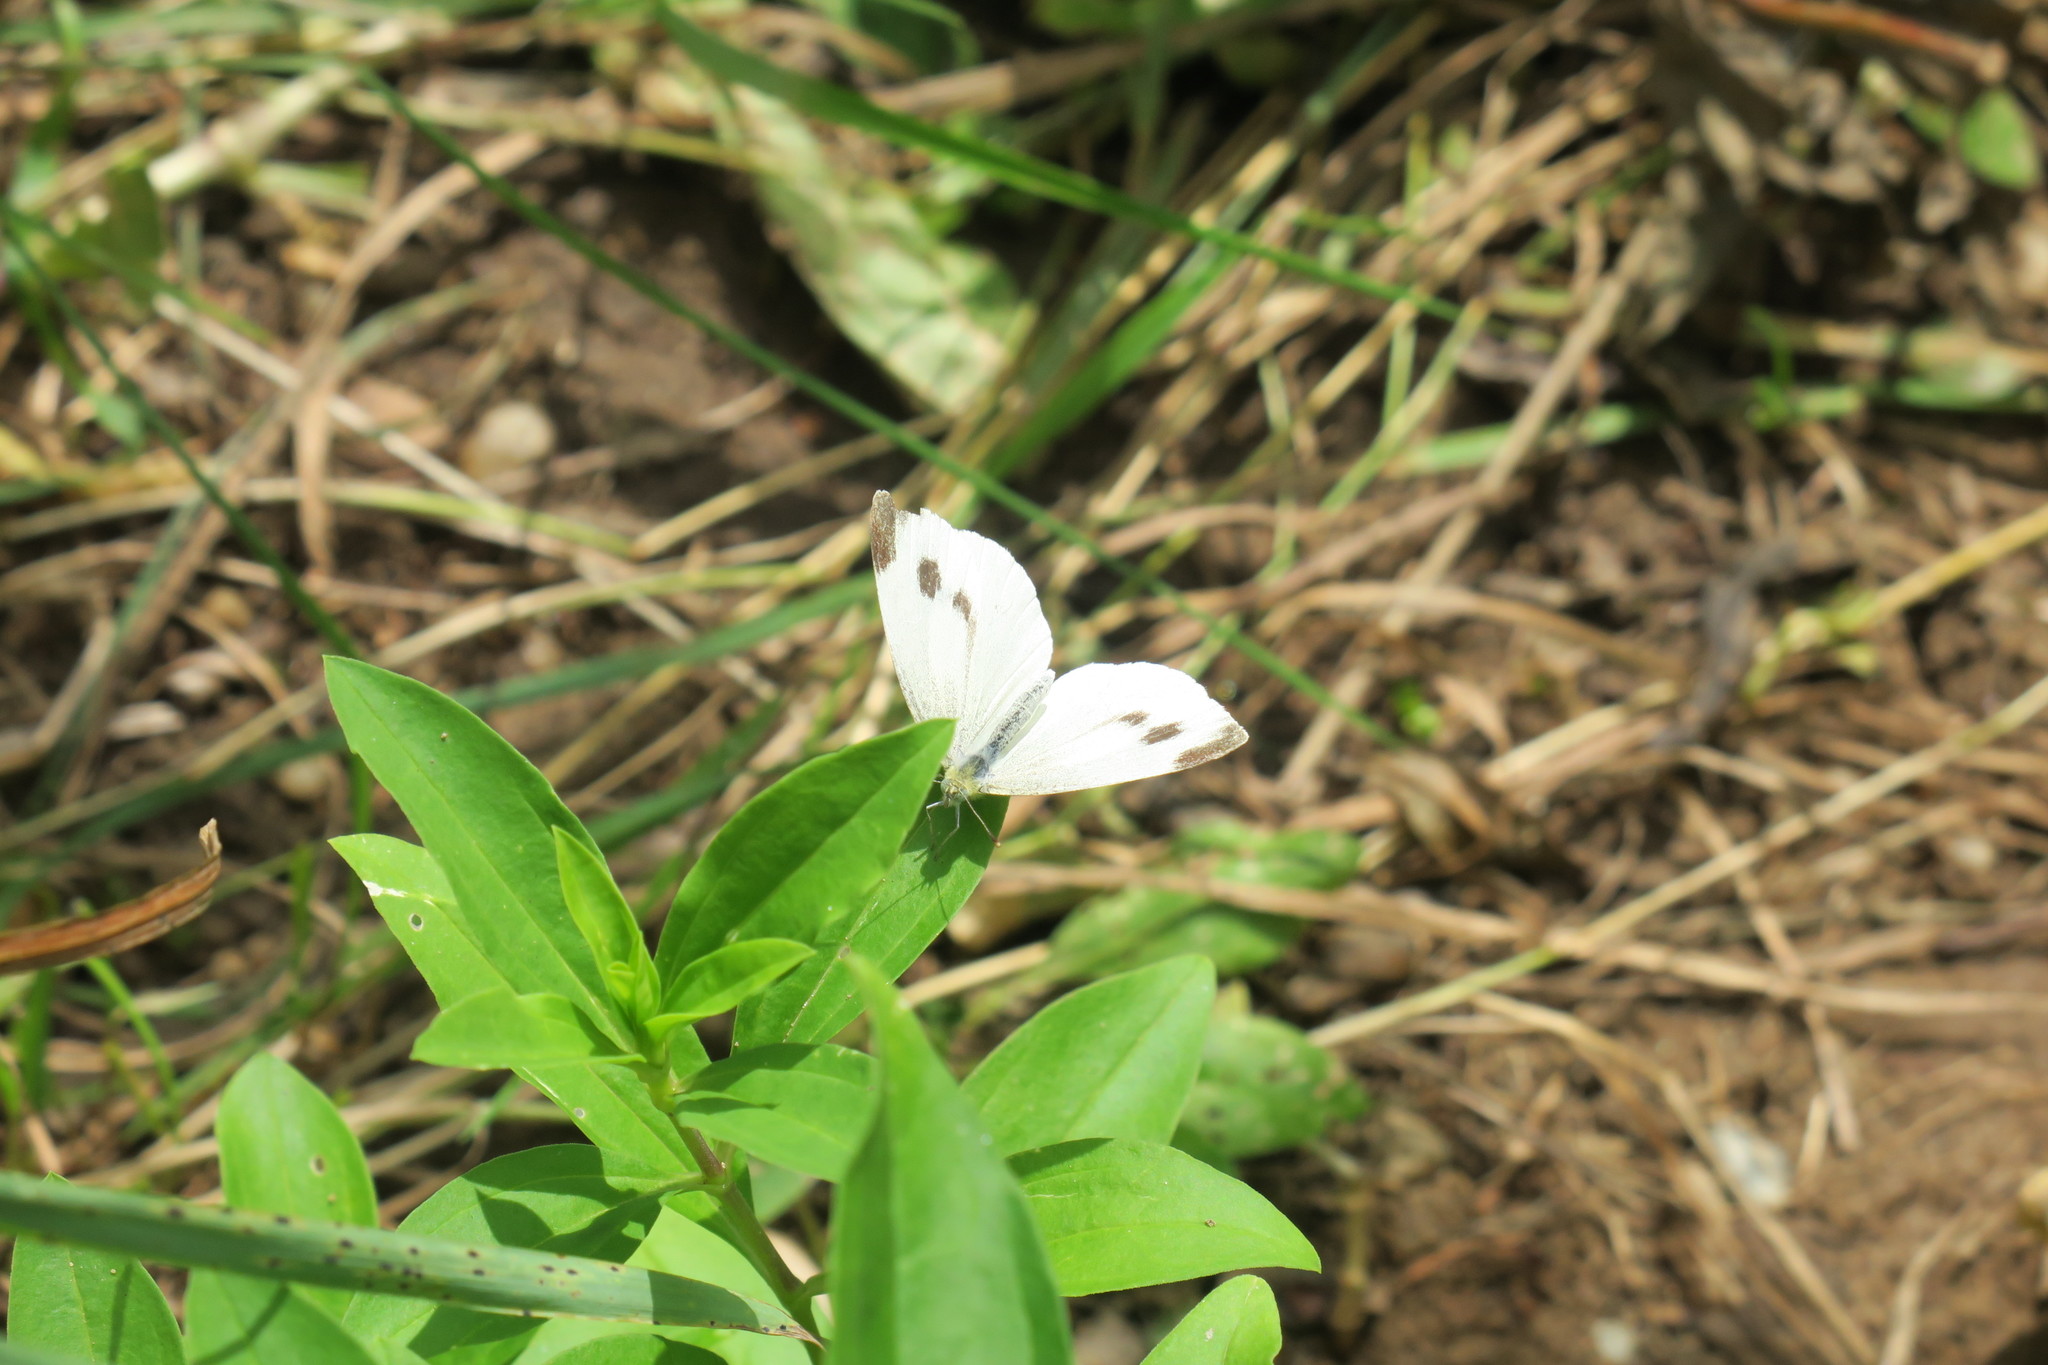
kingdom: Animalia
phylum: Arthropoda
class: Insecta
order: Lepidoptera
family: Pieridae
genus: Pieris
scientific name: Pieris mannii
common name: Southern small white
